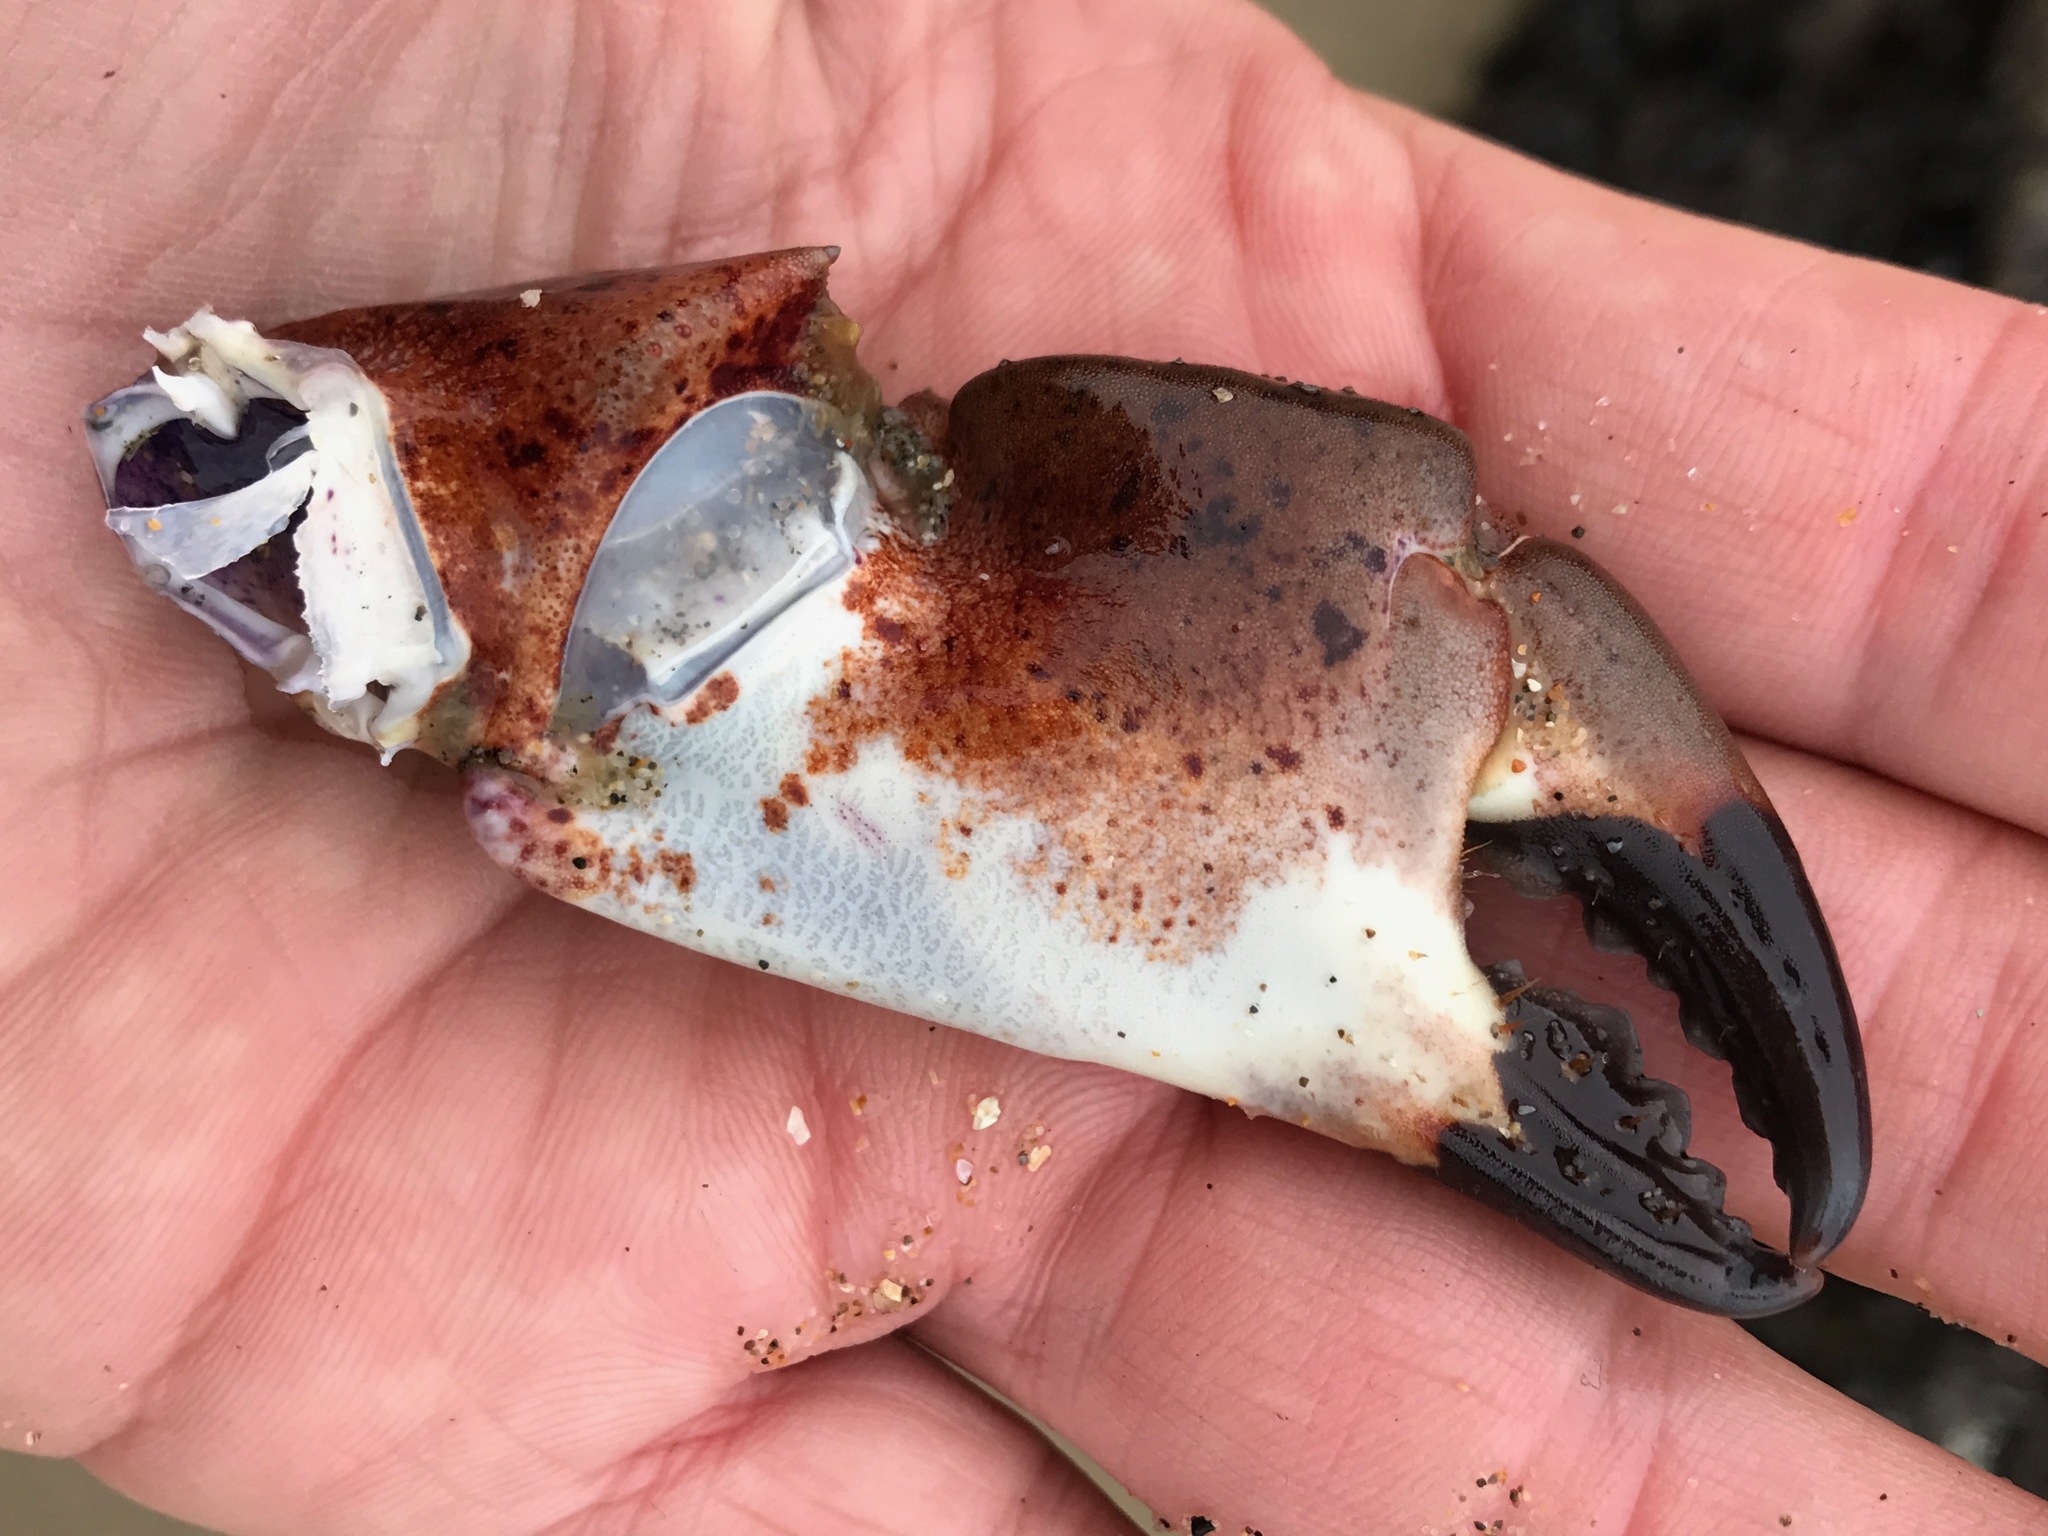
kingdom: Animalia
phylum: Arthropoda
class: Malacostraca
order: Decapoda
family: Cancridae
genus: Romaleon
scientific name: Romaleon antennarium
